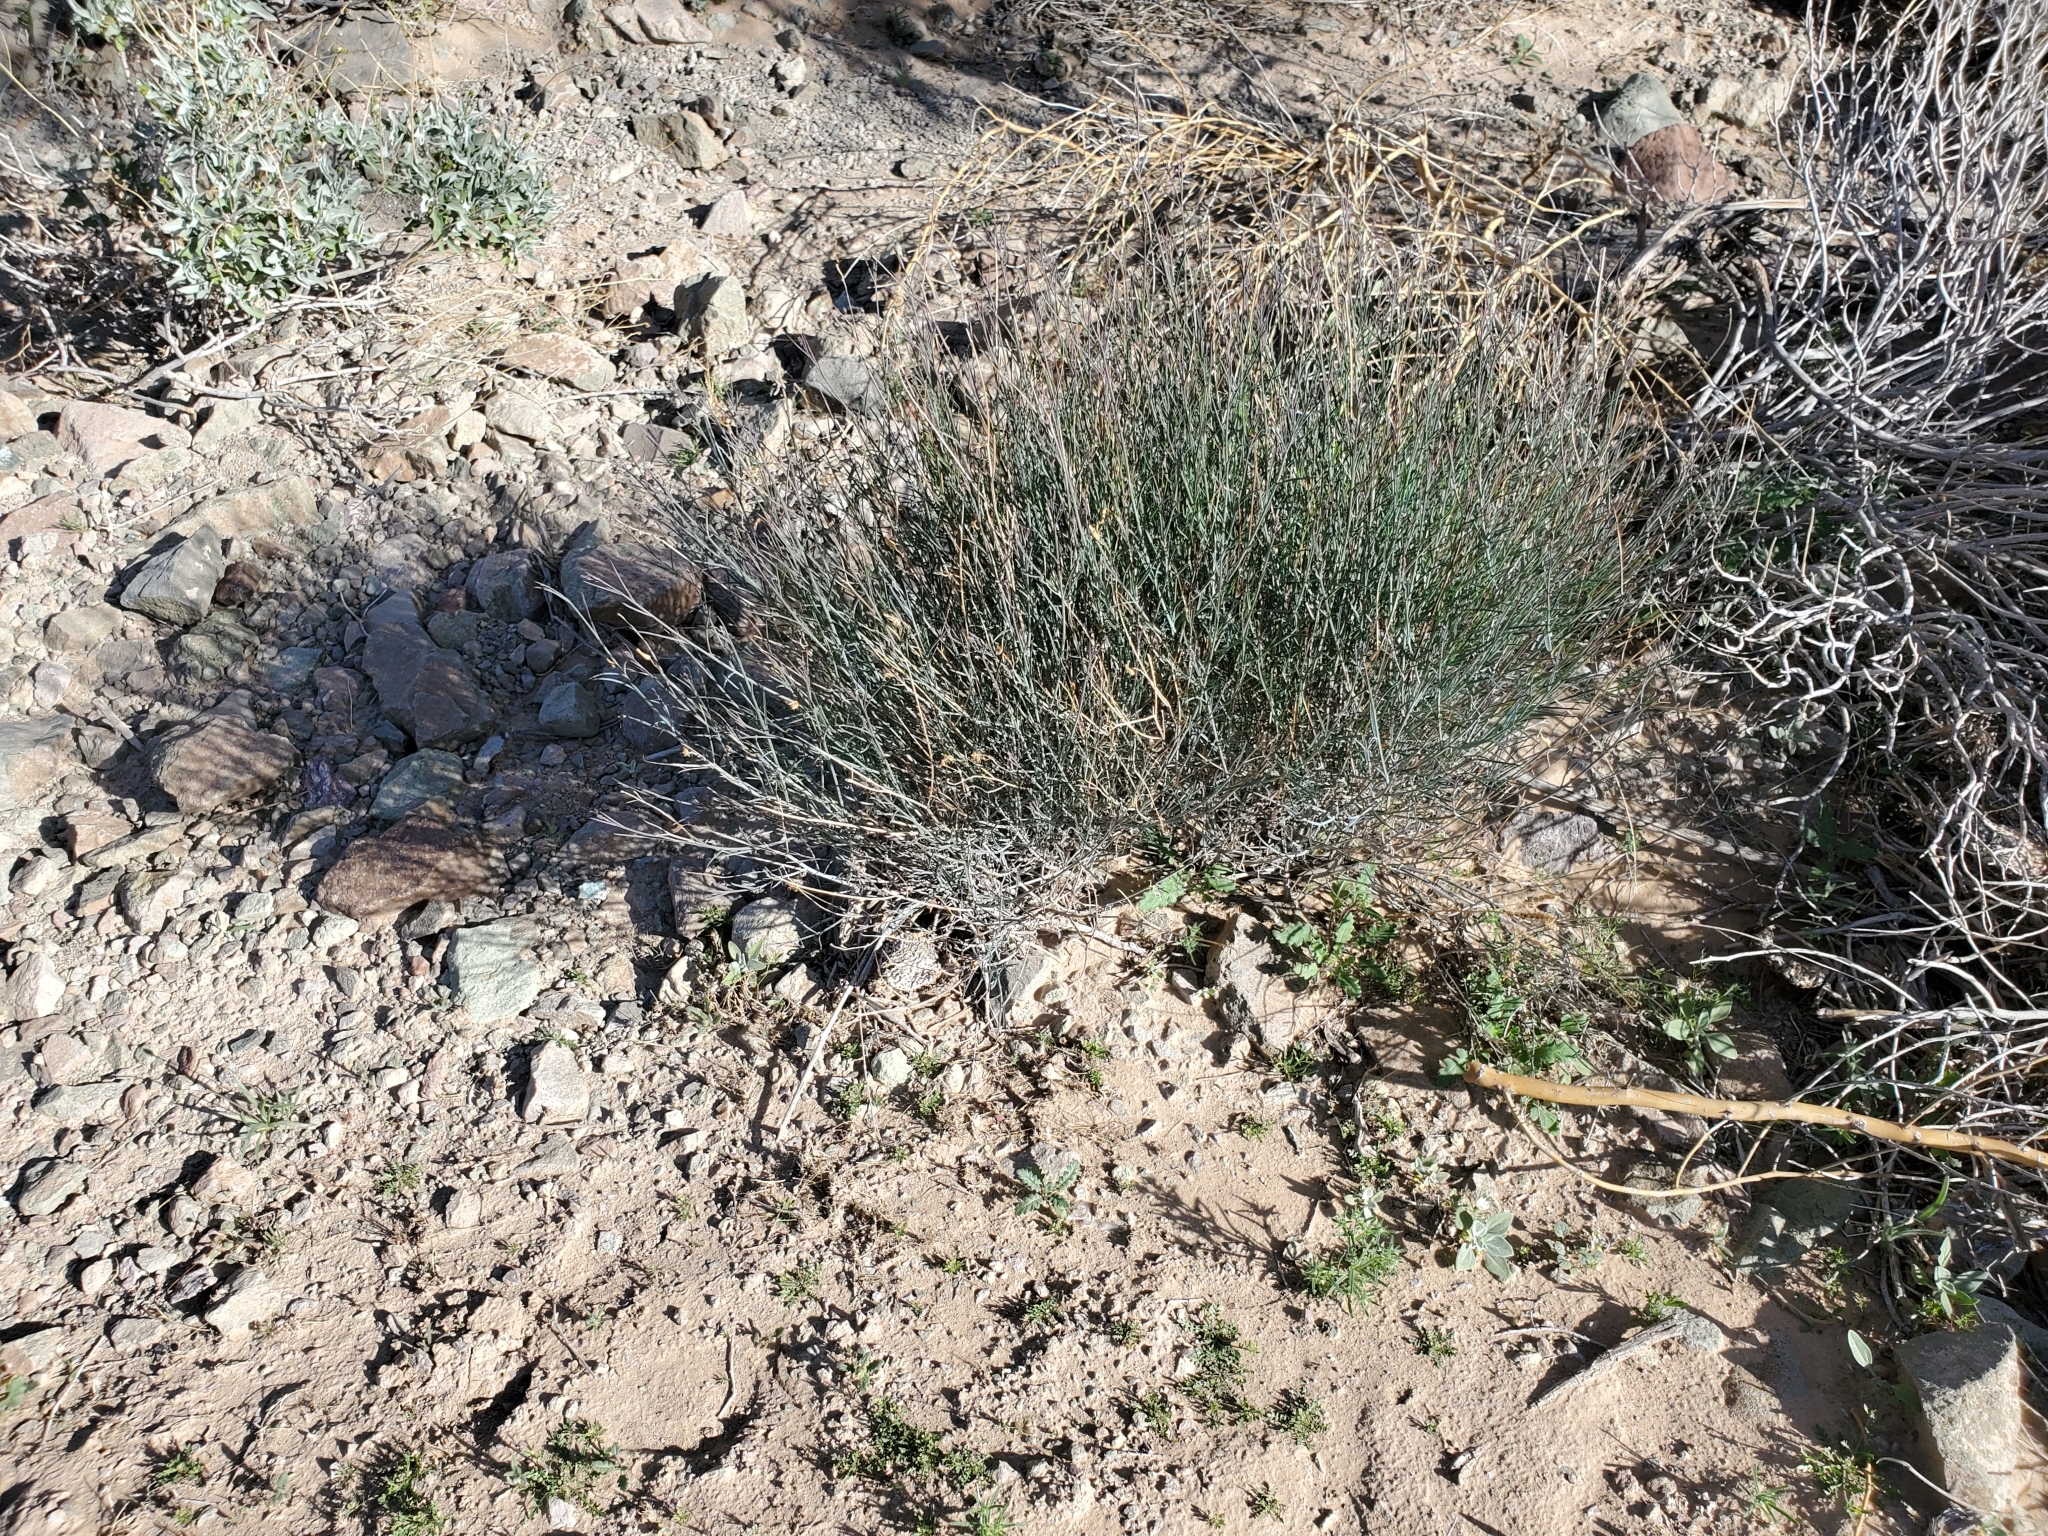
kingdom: Plantae
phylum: Tracheophyta
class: Magnoliopsida
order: Asterales
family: Asteraceae
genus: Porophyllum
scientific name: Porophyllum gracile
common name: Odora
